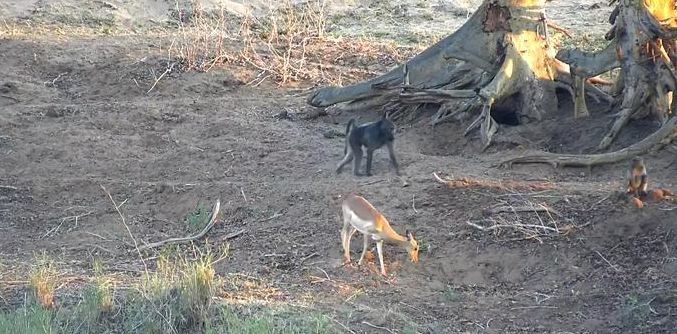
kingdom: Animalia
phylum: Chordata
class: Mammalia
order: Primates
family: Cercopithecidae
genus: Papio
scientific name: Papio ursinus
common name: Chacma baboon
